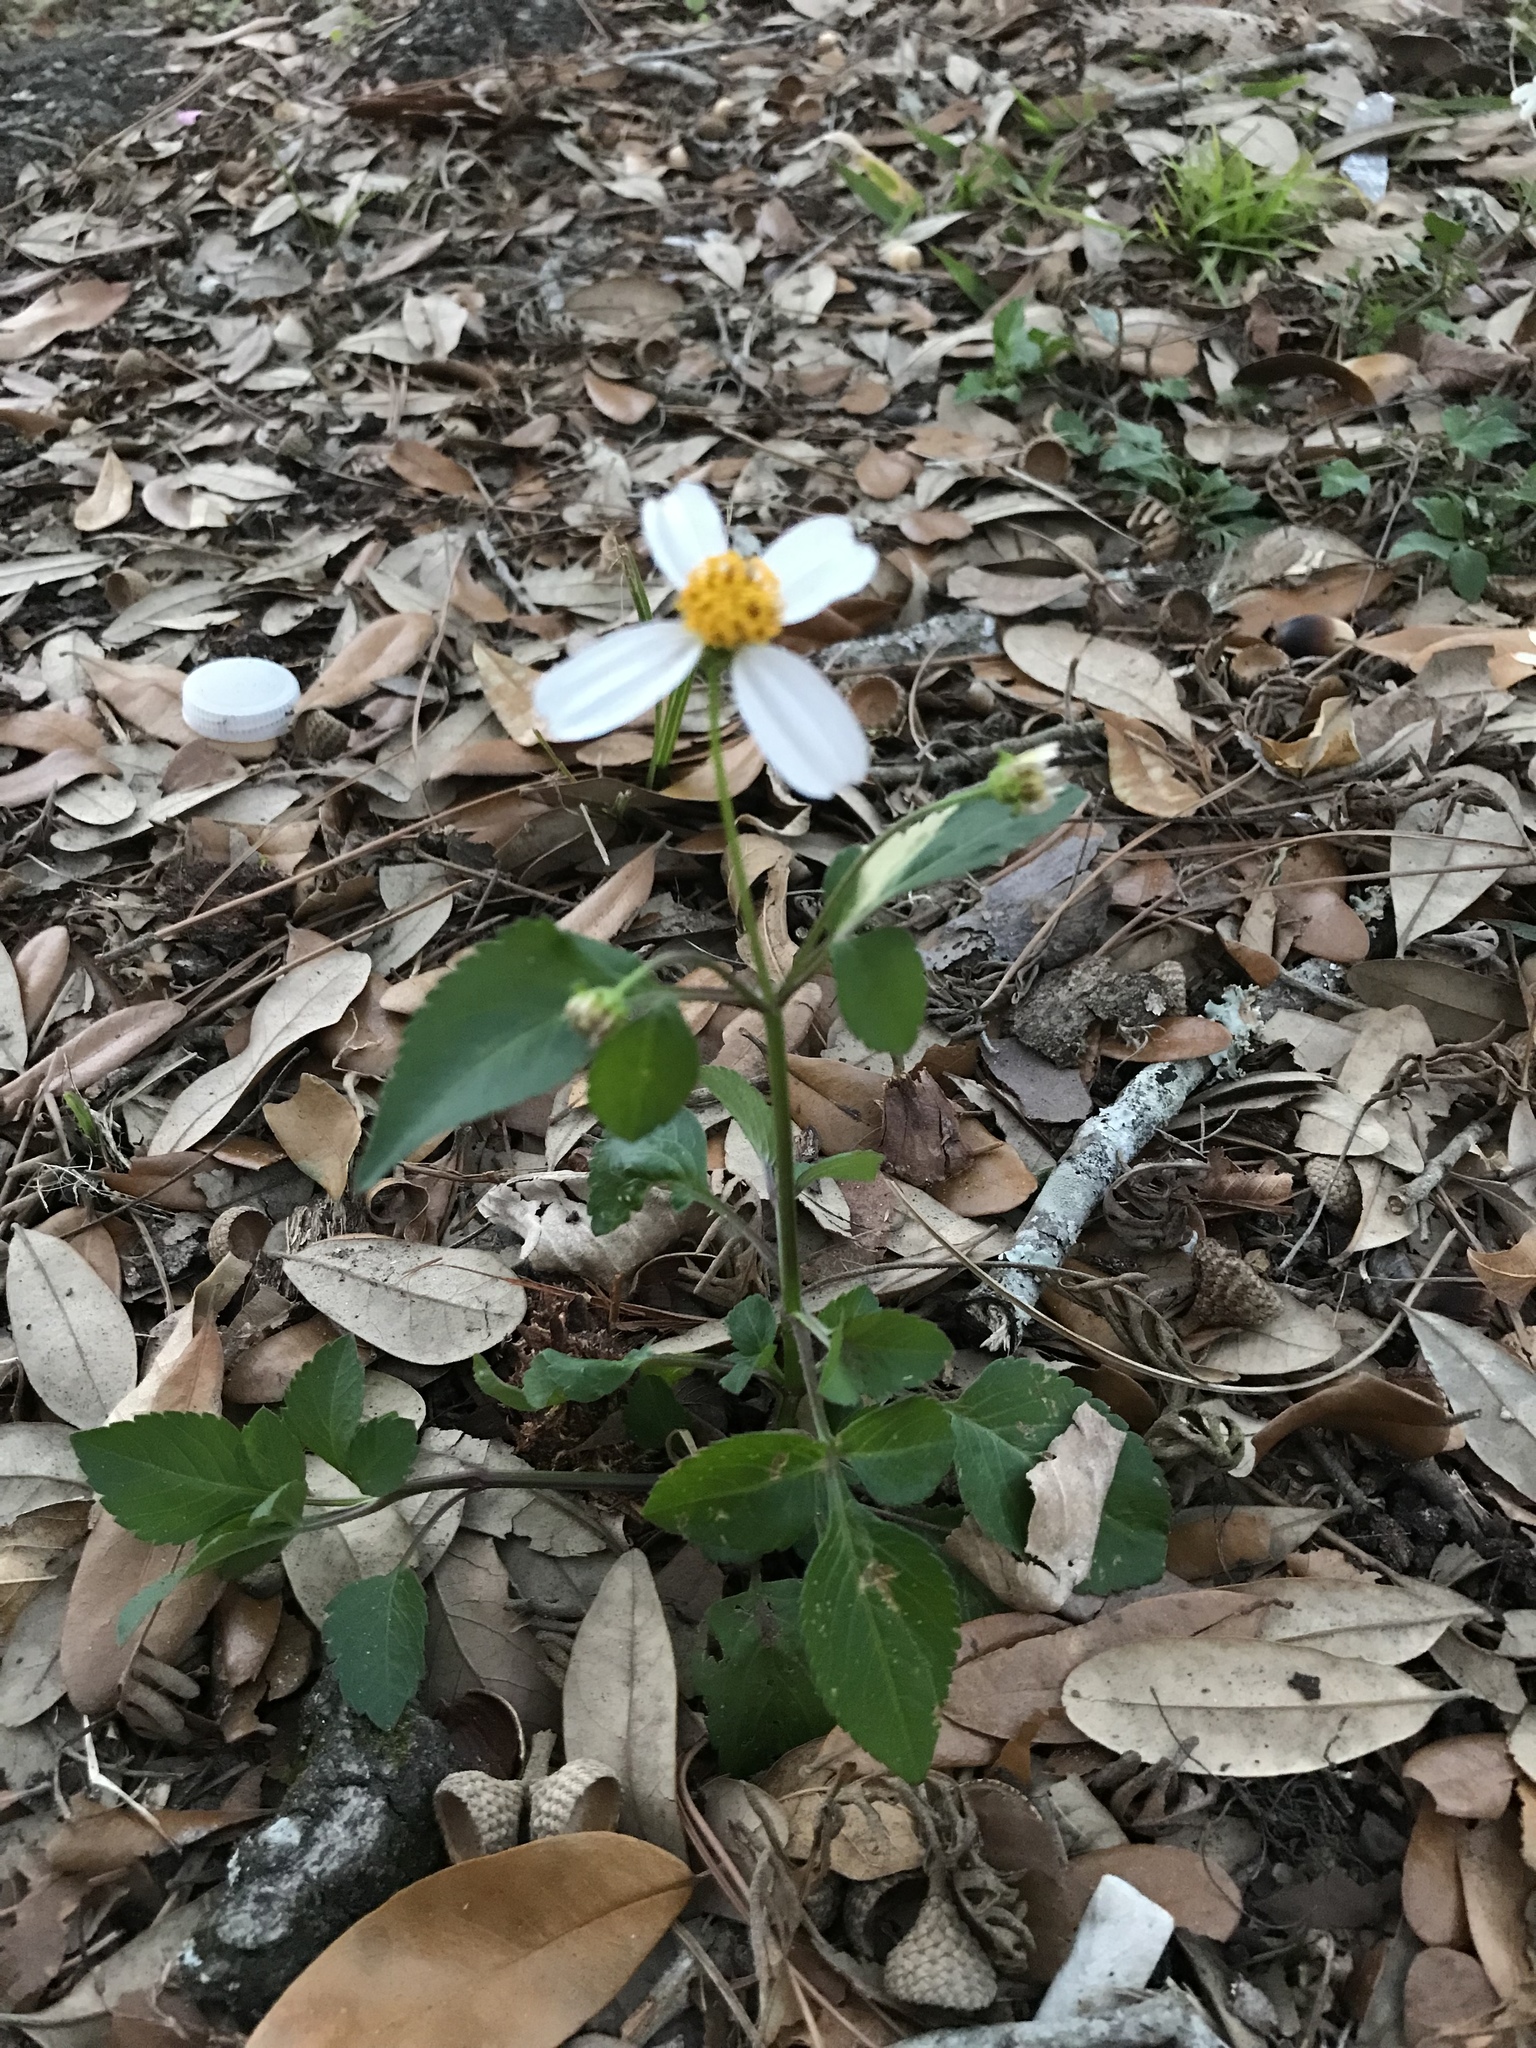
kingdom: Plantae
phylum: Tracheophyta
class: Magnoliopsida
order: Asterales
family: Asteraceae
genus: Bidens
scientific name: Bidens alba
